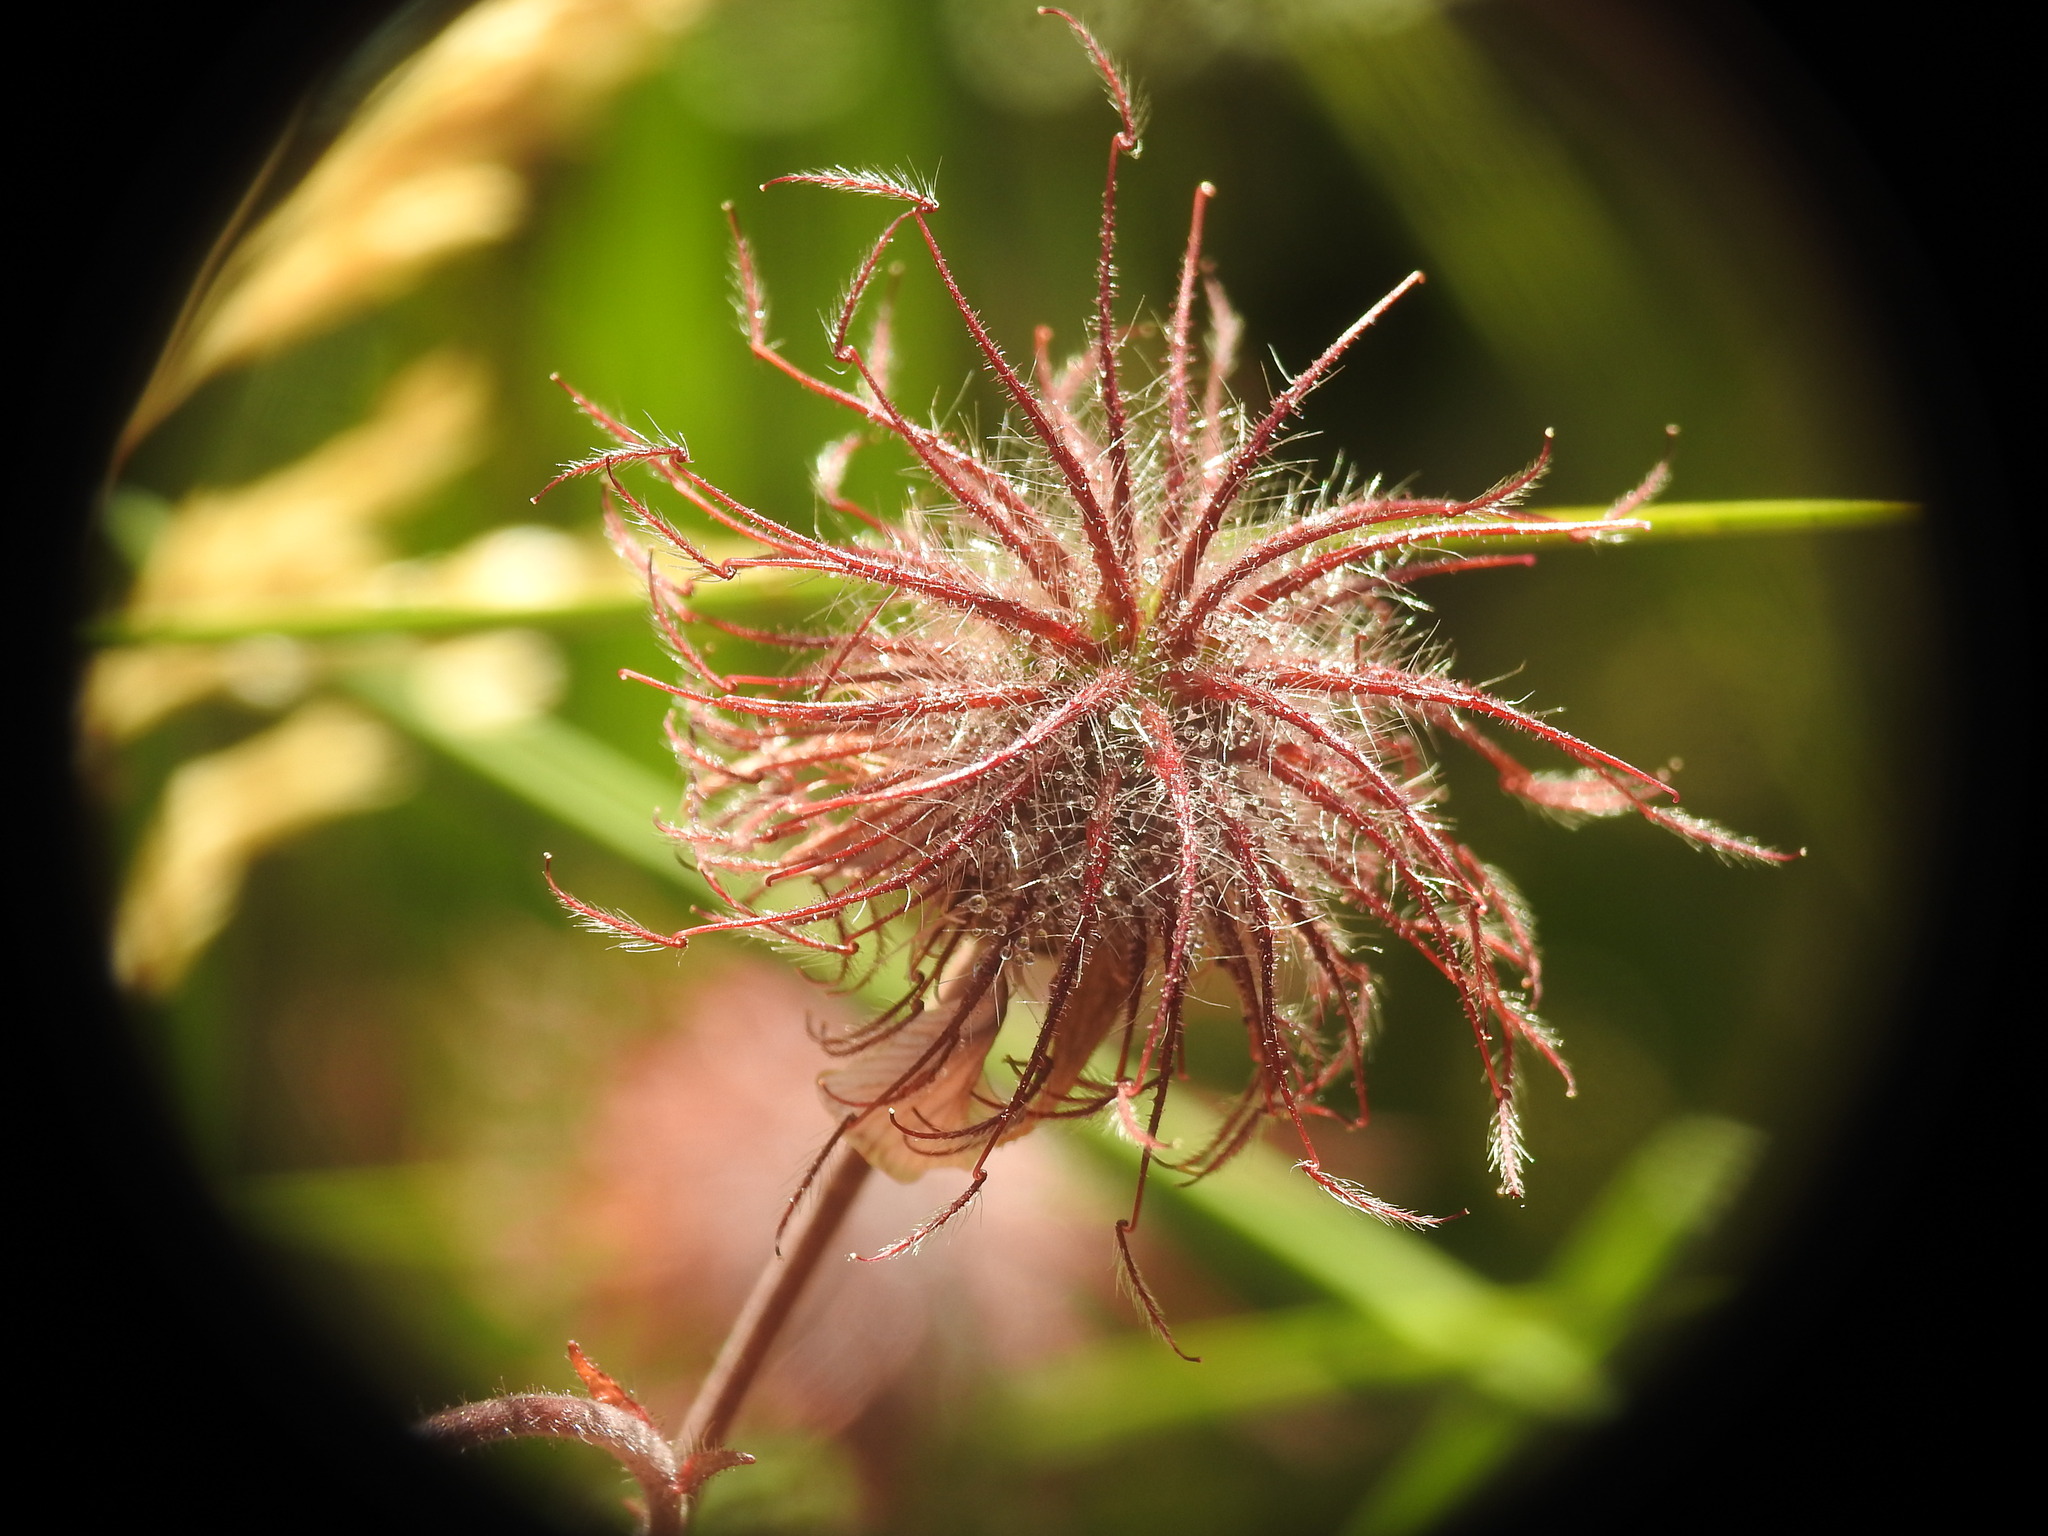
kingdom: Plantae
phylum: Tracheophyta
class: Magnoliopsida
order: Rosales
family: Rosaceae
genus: Geum
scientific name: Geum rivale
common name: Water avens
